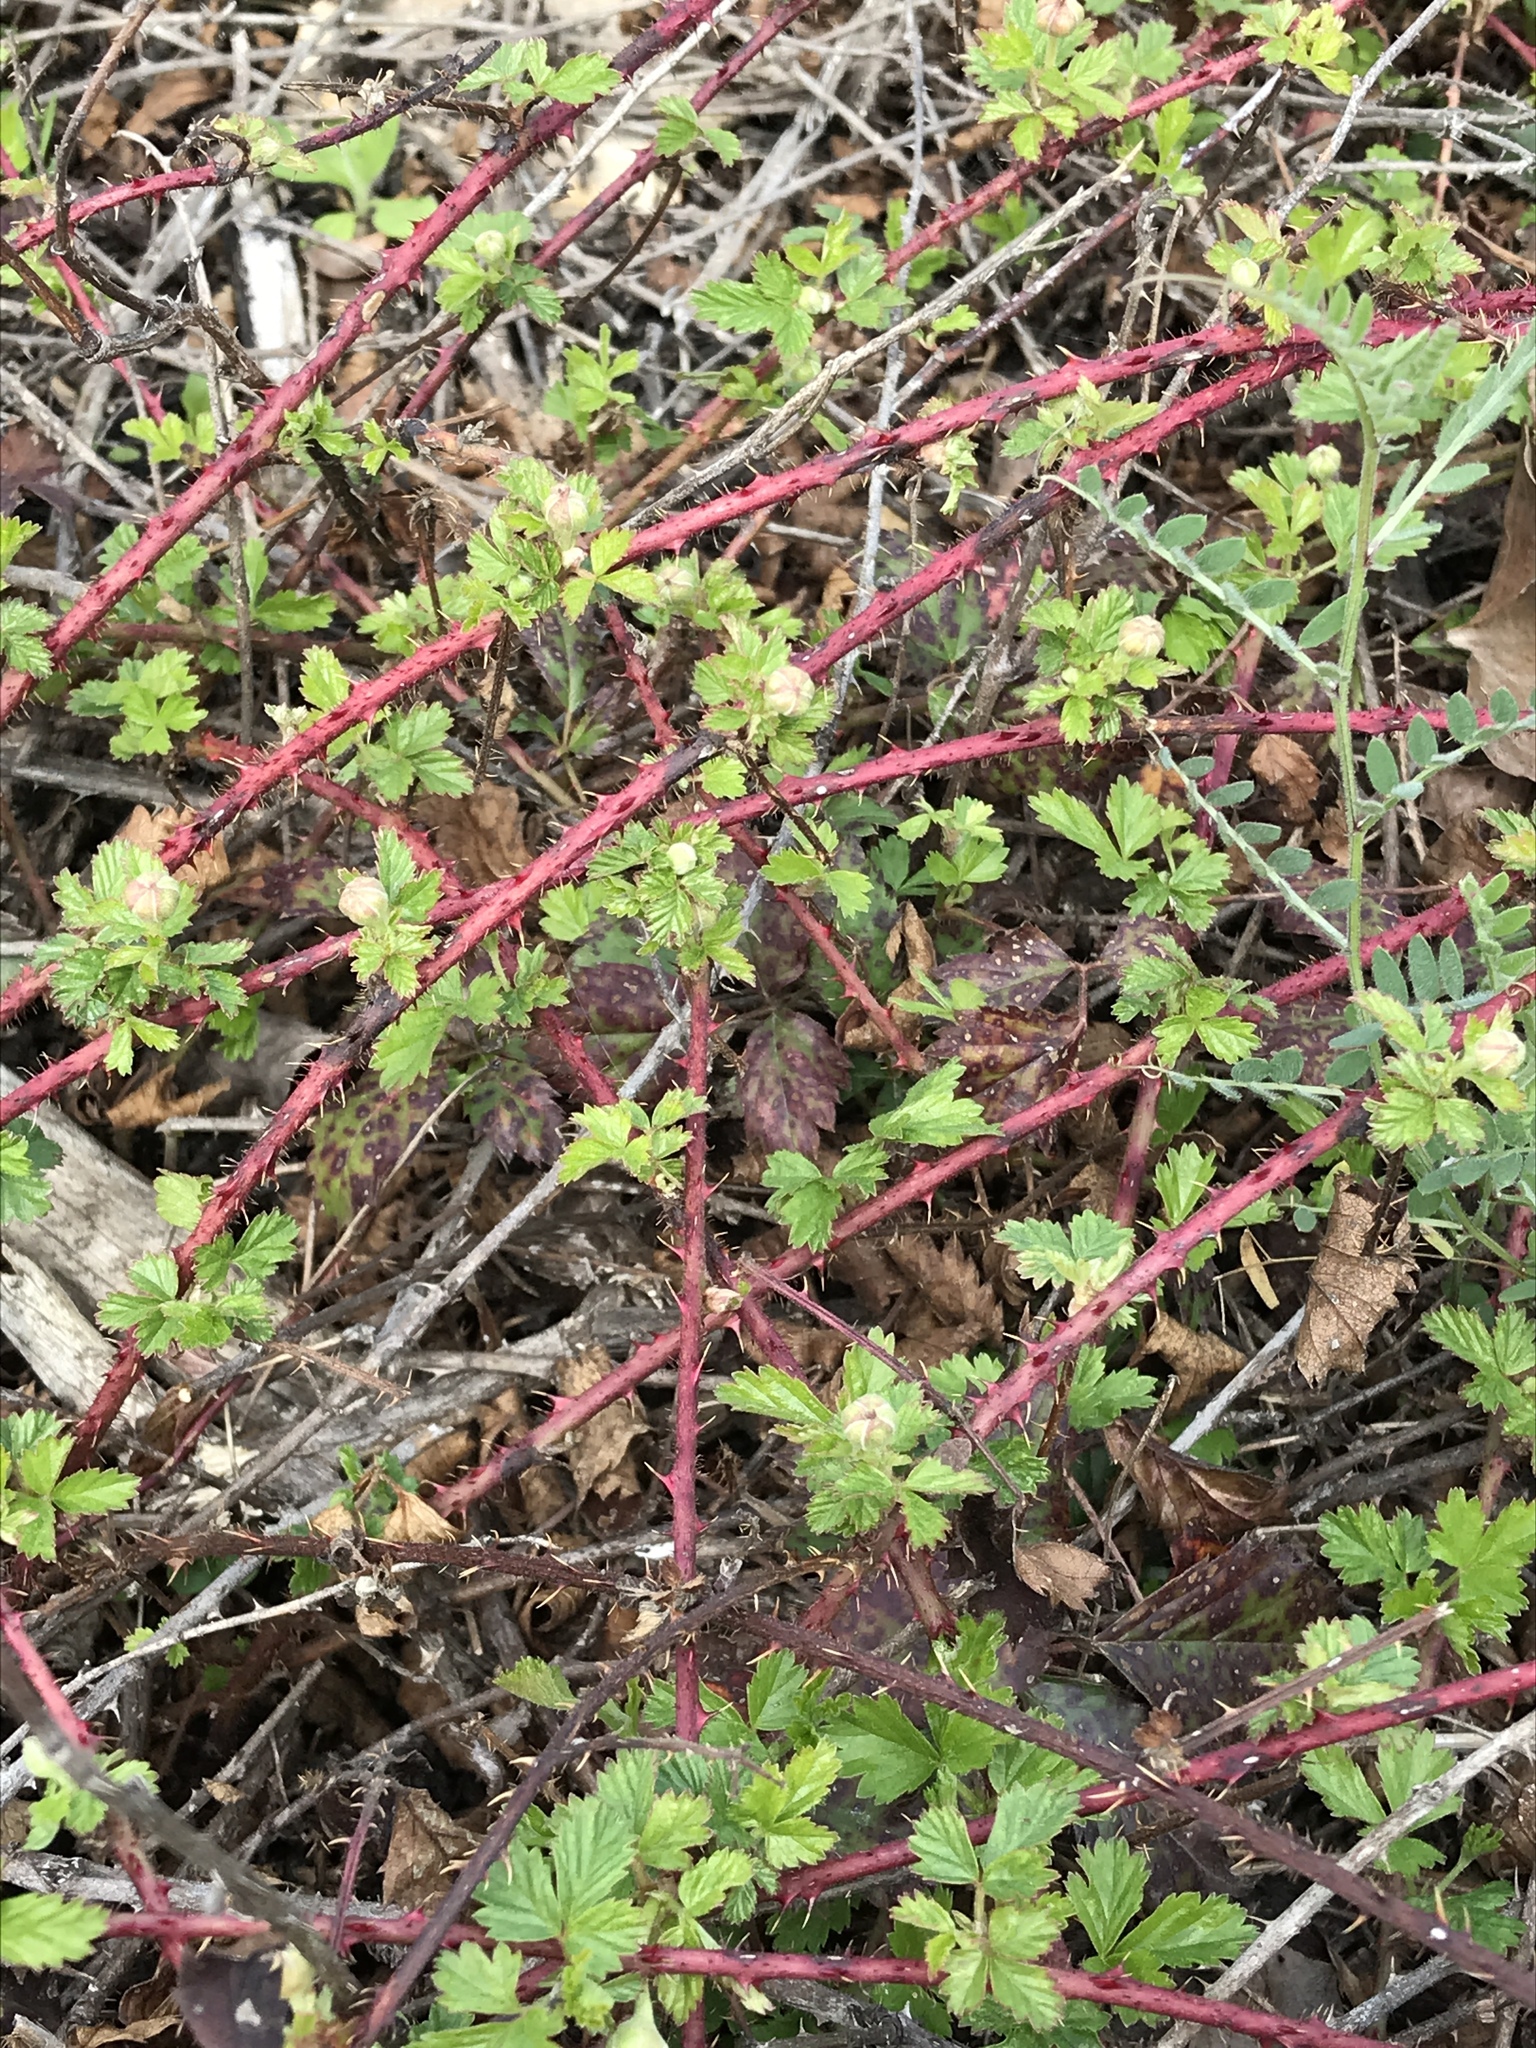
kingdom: Plantae
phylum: Tracheophyta
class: Magnoliopsida
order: Rosales
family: Rosaceae
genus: Rubus
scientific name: Rubus trivialis
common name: Southern dewberry
